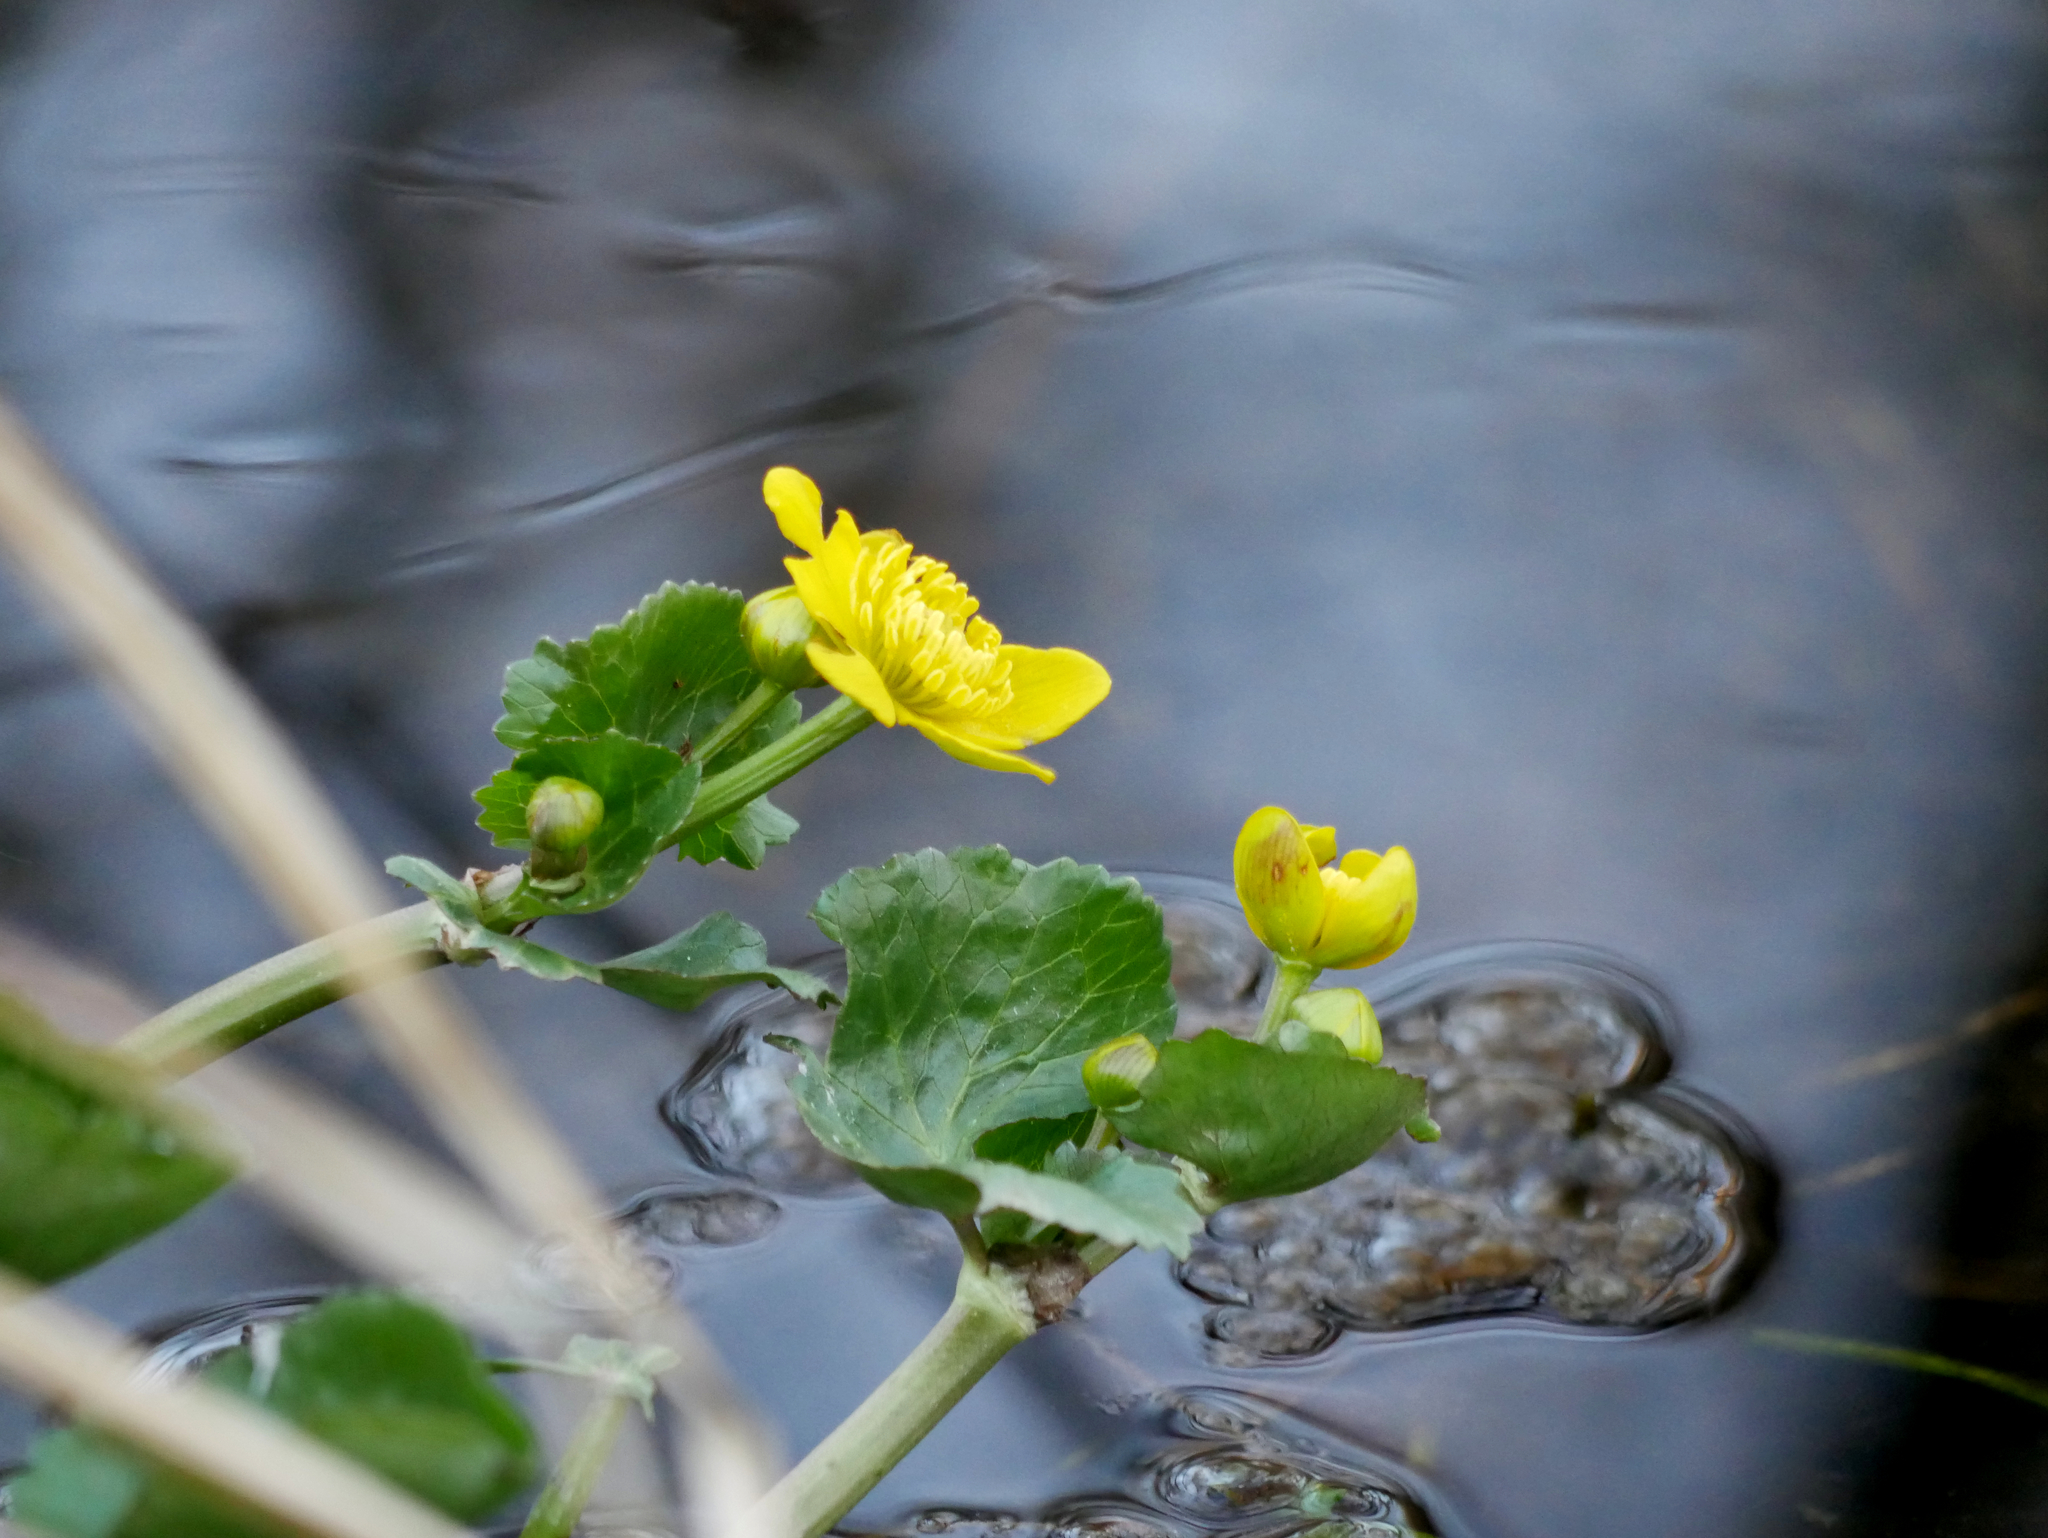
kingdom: Plantae
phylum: Tracheophyta
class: Magnoliopsida
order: Ranunculales
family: Ranunculaceae
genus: Caltha
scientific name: Caltha palustris
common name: Marsh marigold
